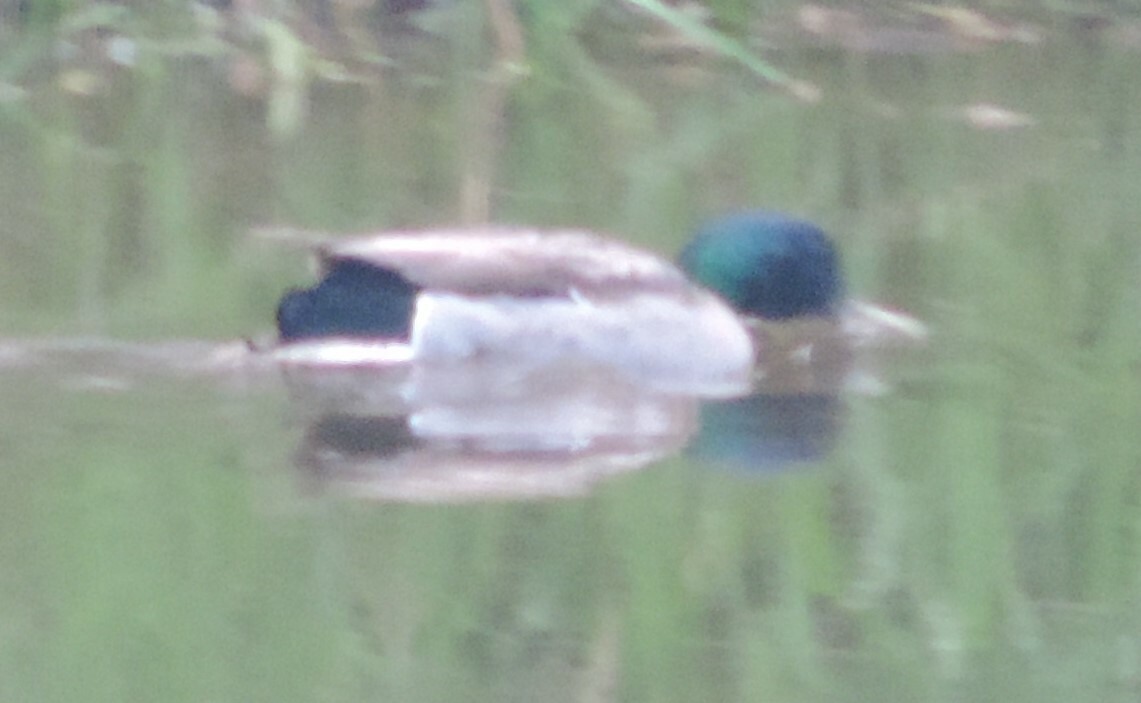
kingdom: Animalia
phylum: Chordata
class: Aves
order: Anseriformes
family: Anatidae
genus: Anas
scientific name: Anas platyrhynchos
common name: Mallard
